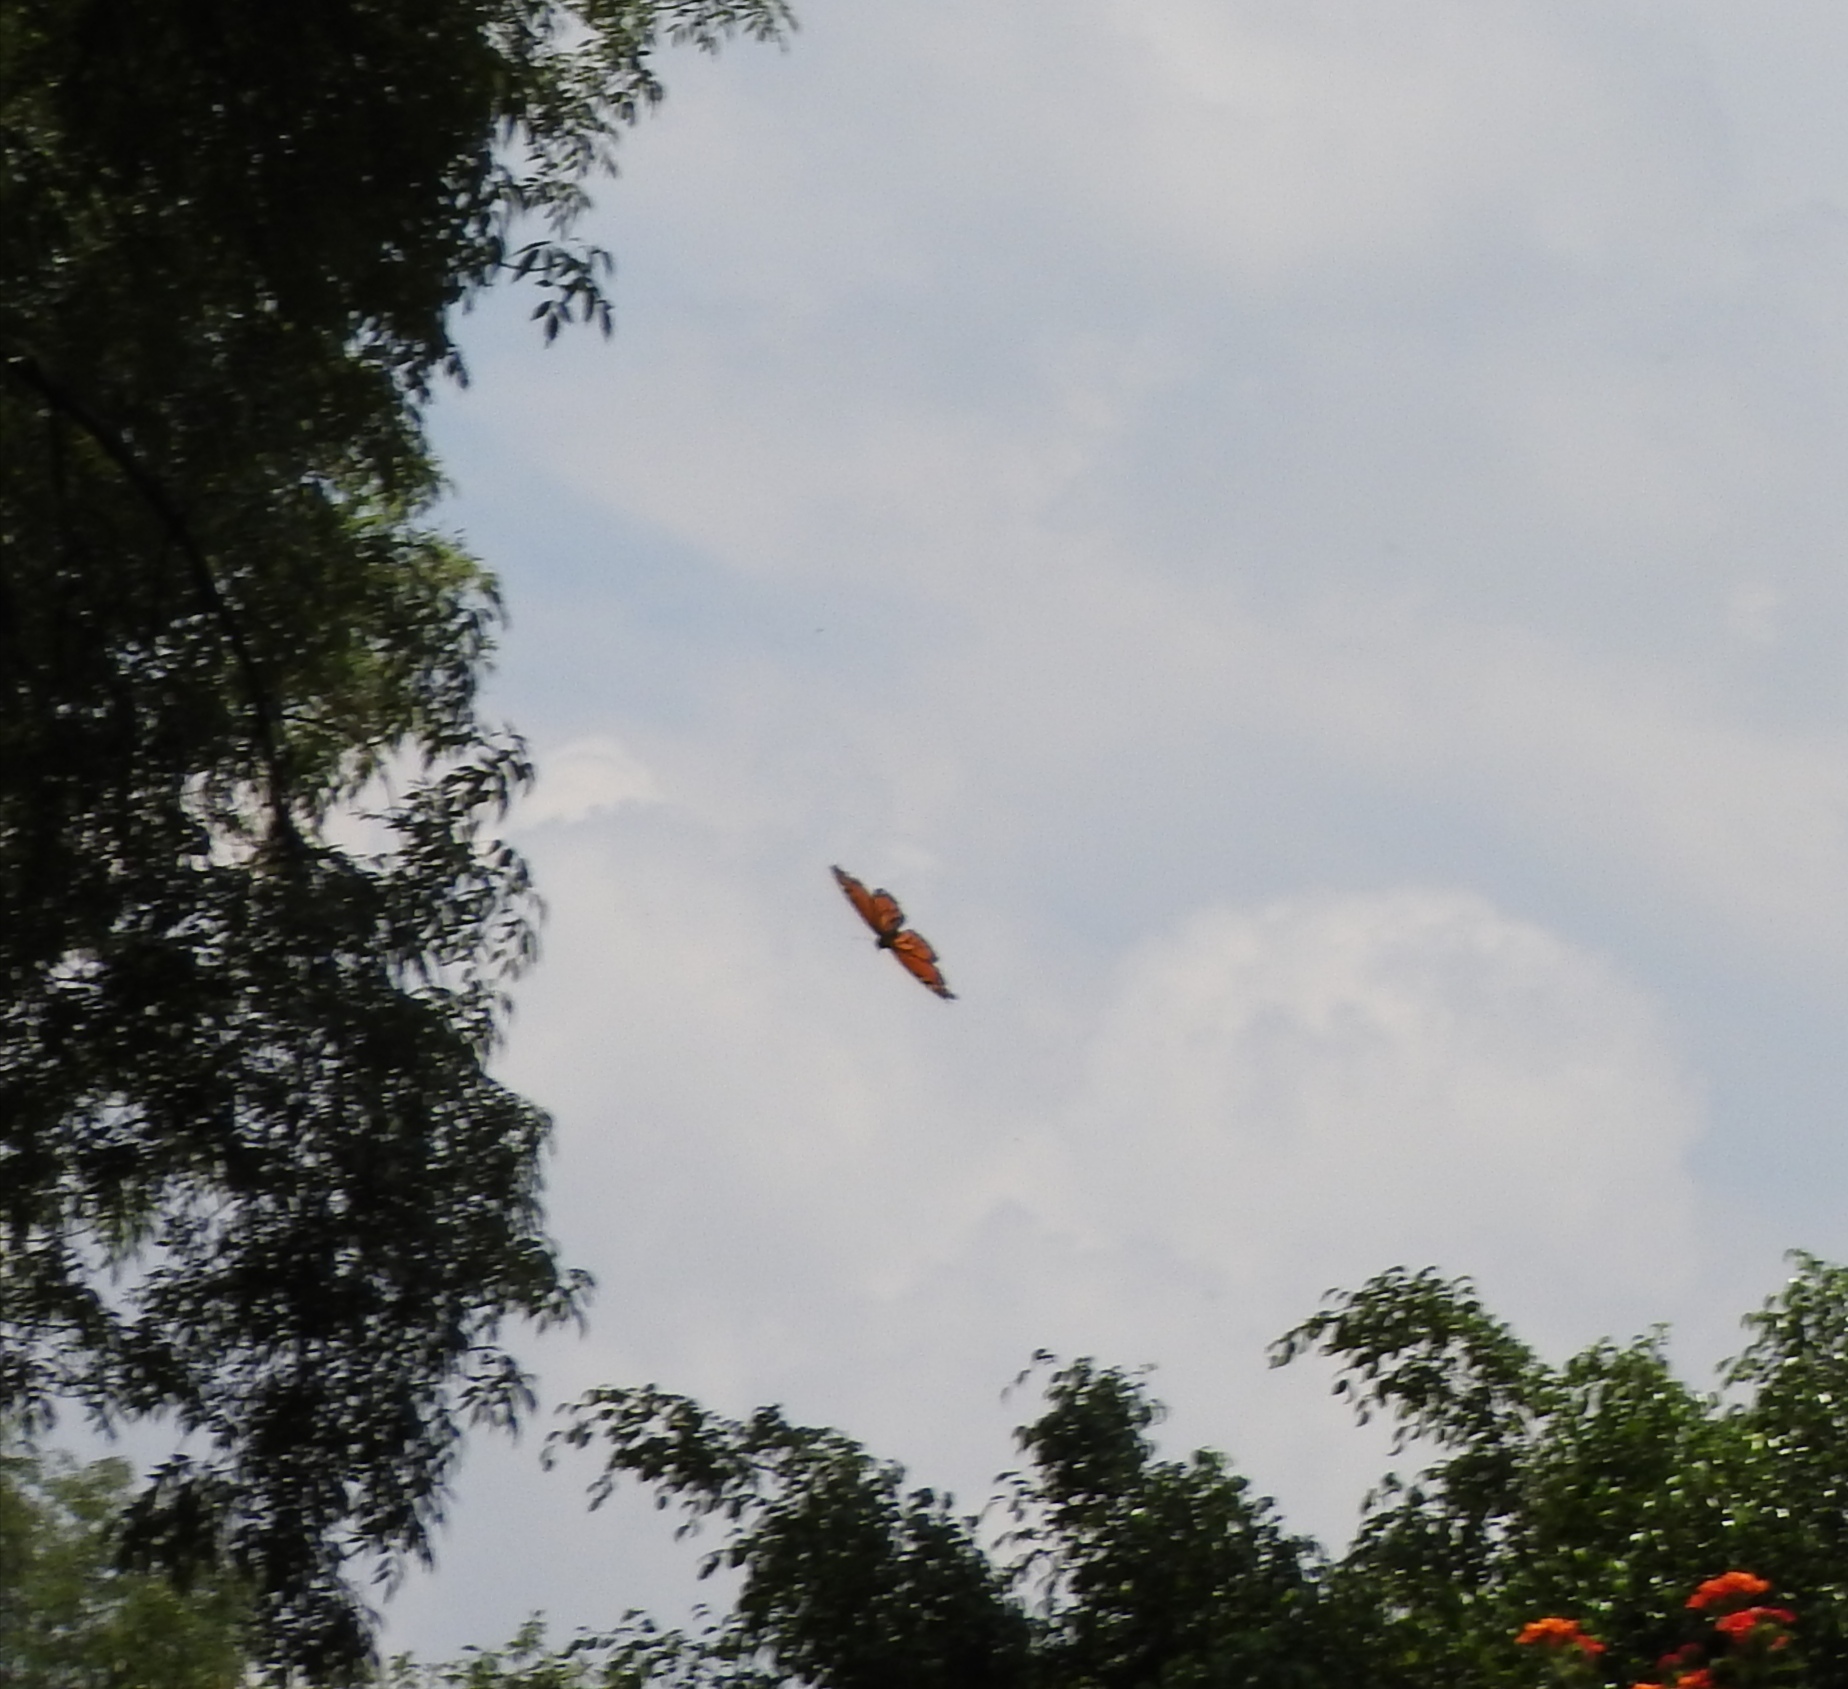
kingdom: Animalia
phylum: Arthropoda
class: Insecta
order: Lepidoptera
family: Nymphalidae
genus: Danaus
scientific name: Danaus plexippus
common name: Monarch
